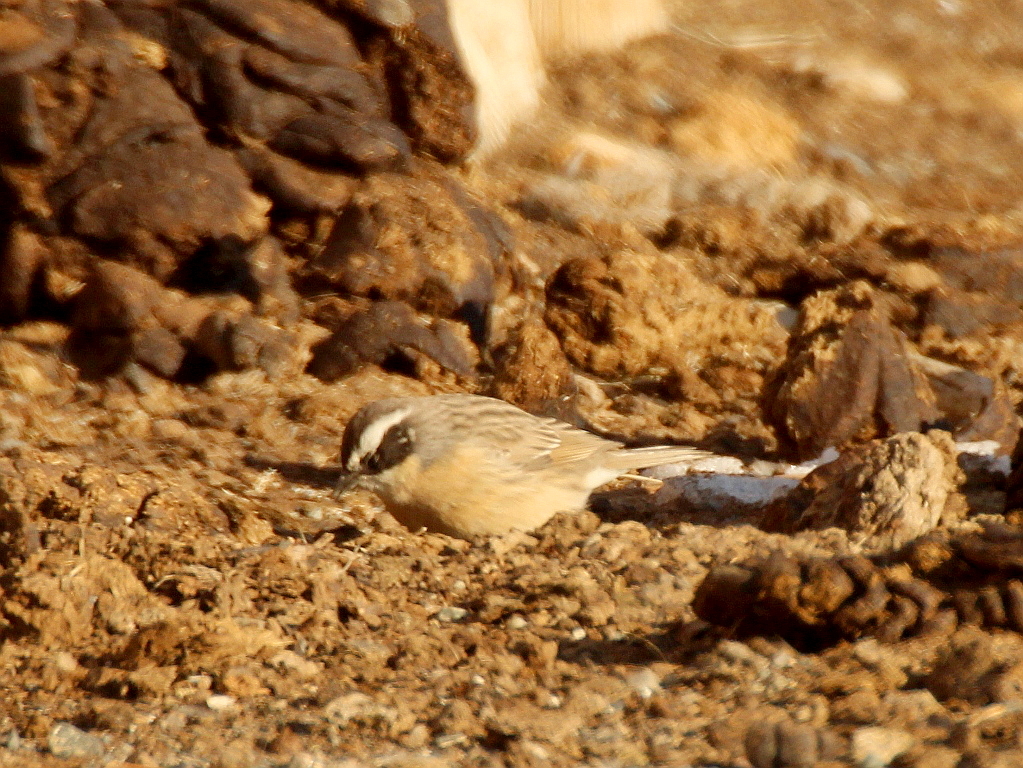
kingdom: Animalia
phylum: Chordata
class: Aves
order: Passeriformes
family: Prunellidae
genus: Prunella
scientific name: Prunella fulvescens
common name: Brown accentor
